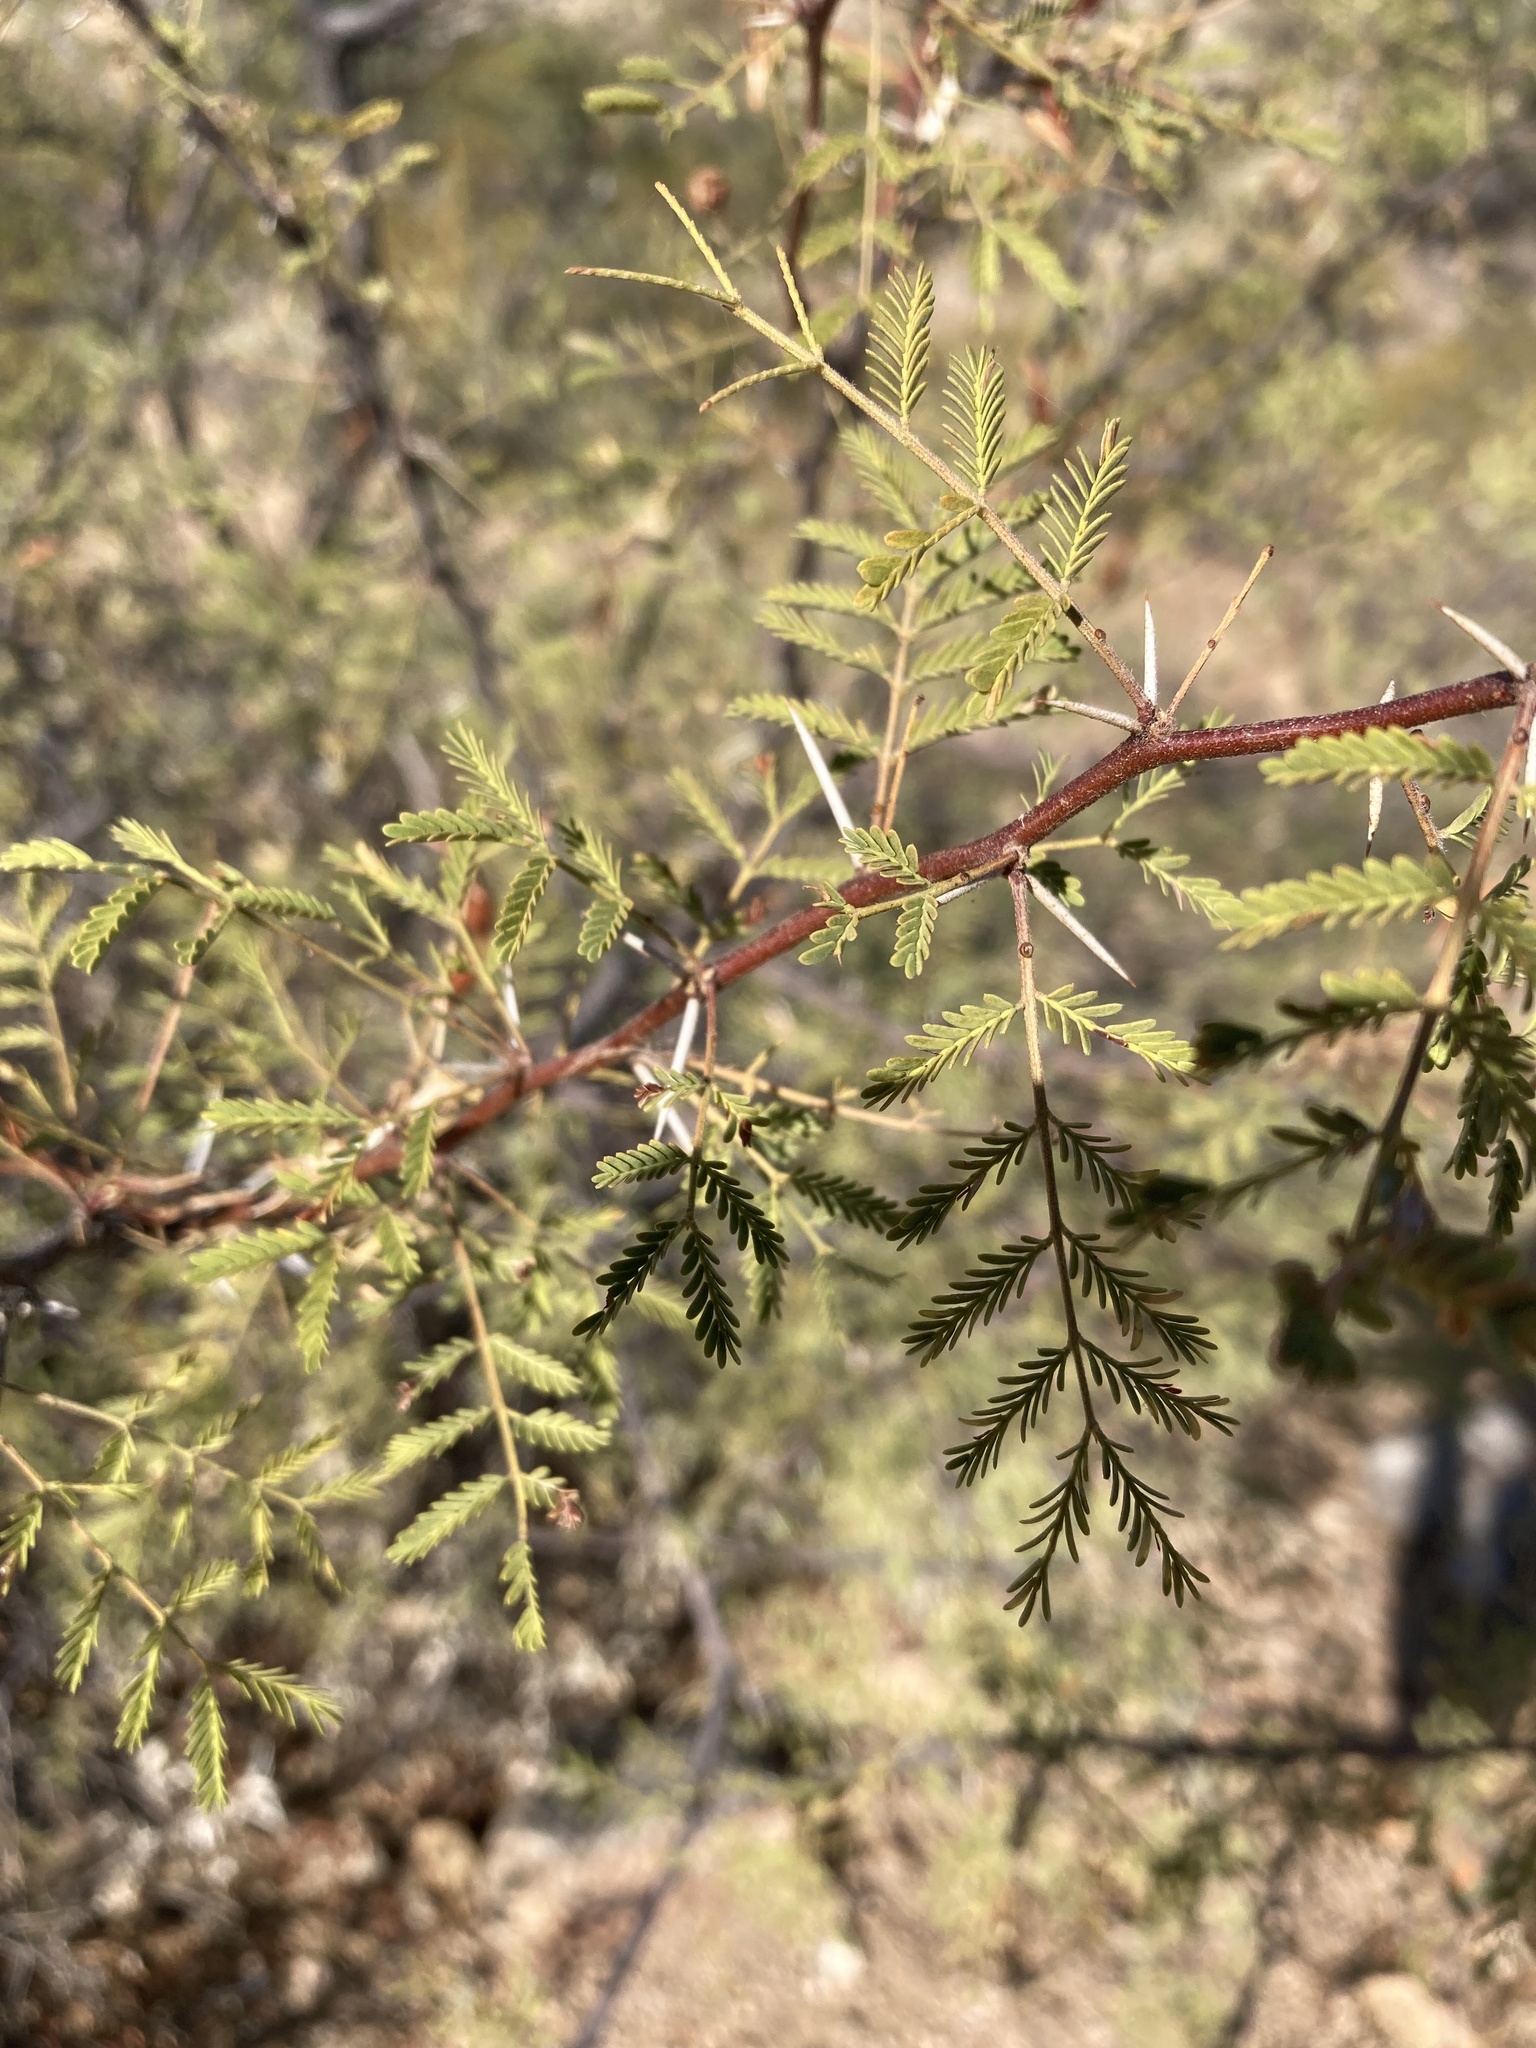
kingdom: Plantae
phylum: Tracheophyta
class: Magnoliopsida
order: Fabales
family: Fabaceae
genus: Vachellia
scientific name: Vachellia constricta
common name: Mescat acacia
